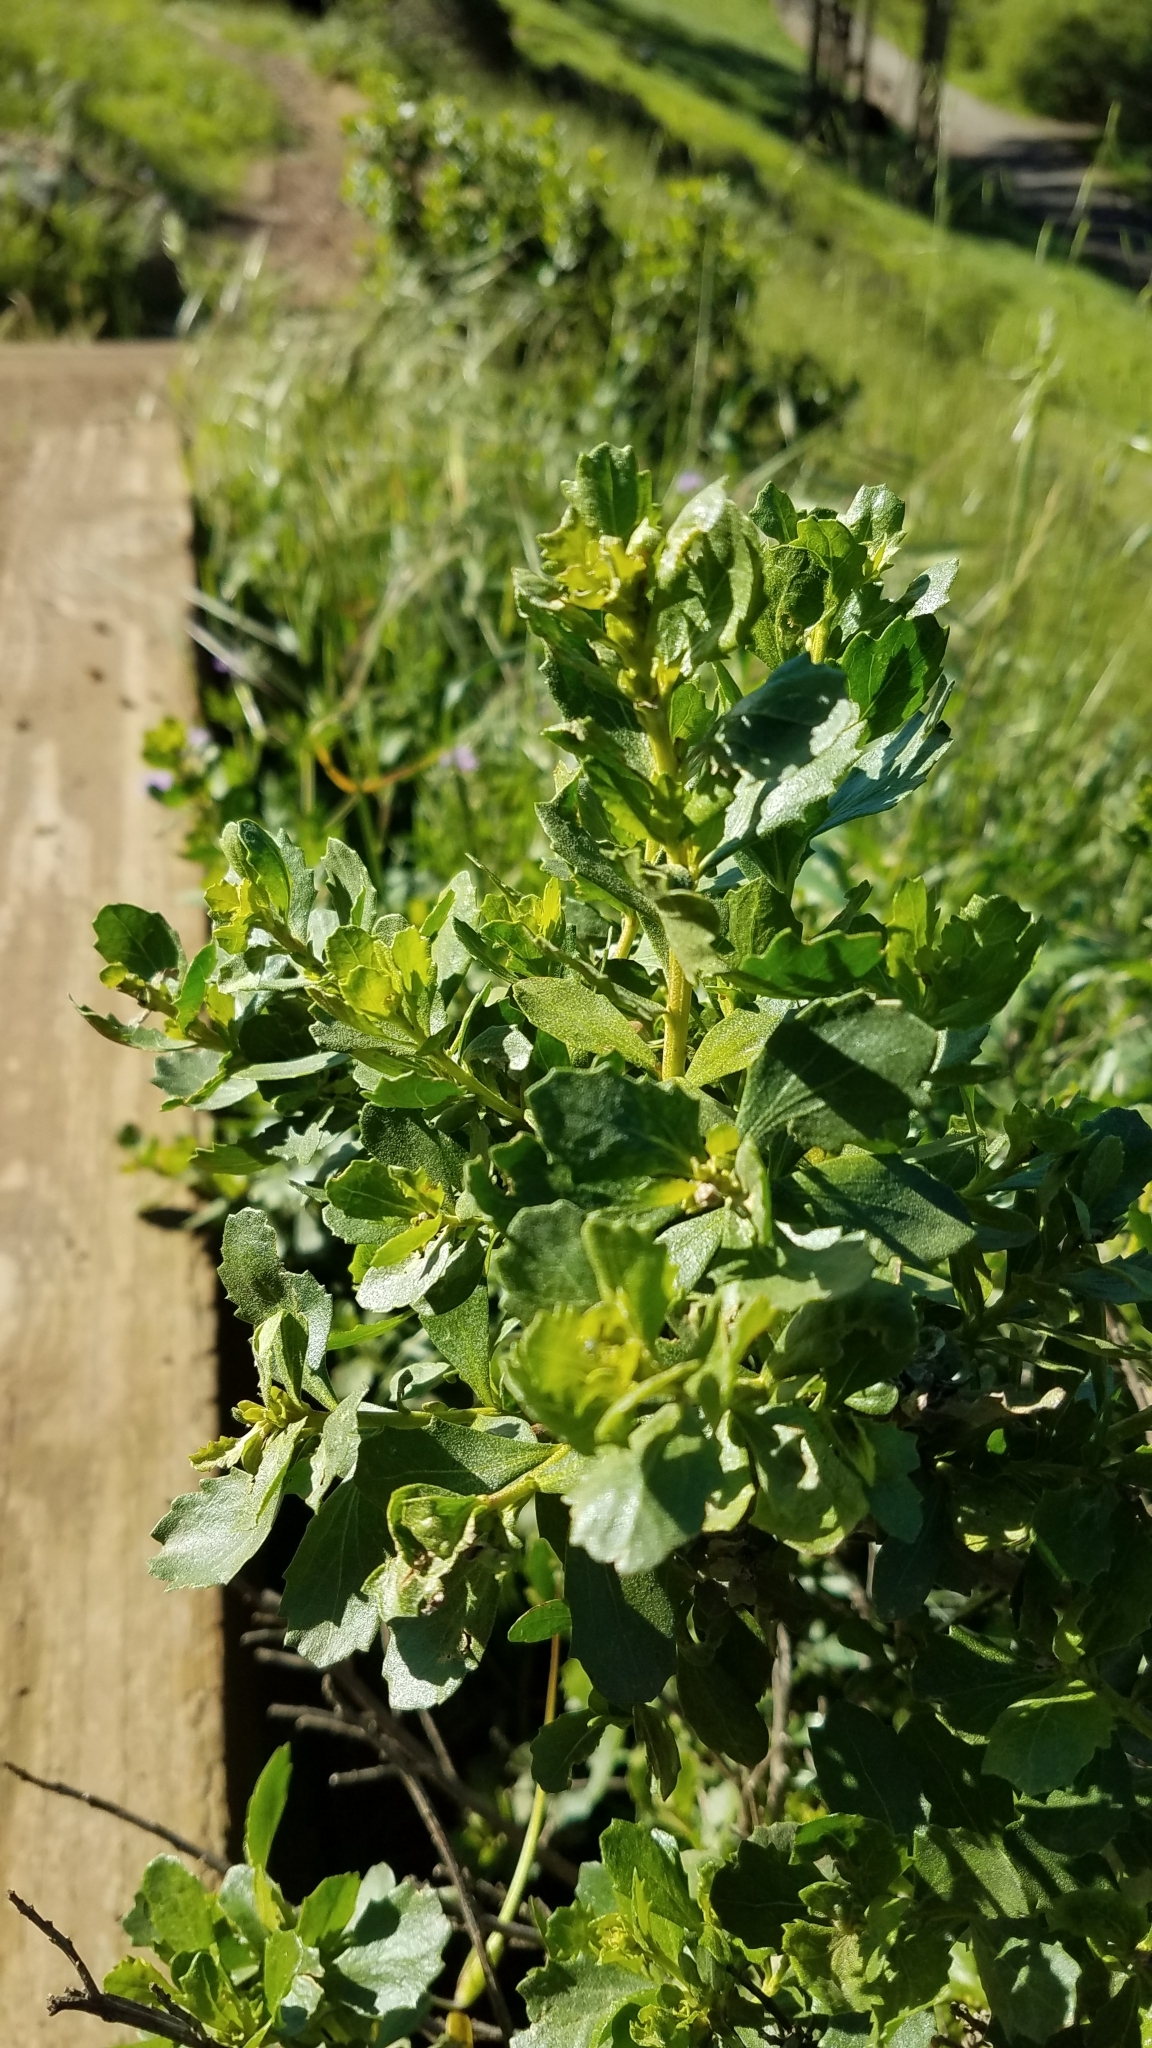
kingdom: Plantae
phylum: Tracheophyta
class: Magnoliopsida
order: Asterales
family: Asteraceae
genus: Baccharis
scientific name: Baccharis pilularis
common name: Coyotebrush
